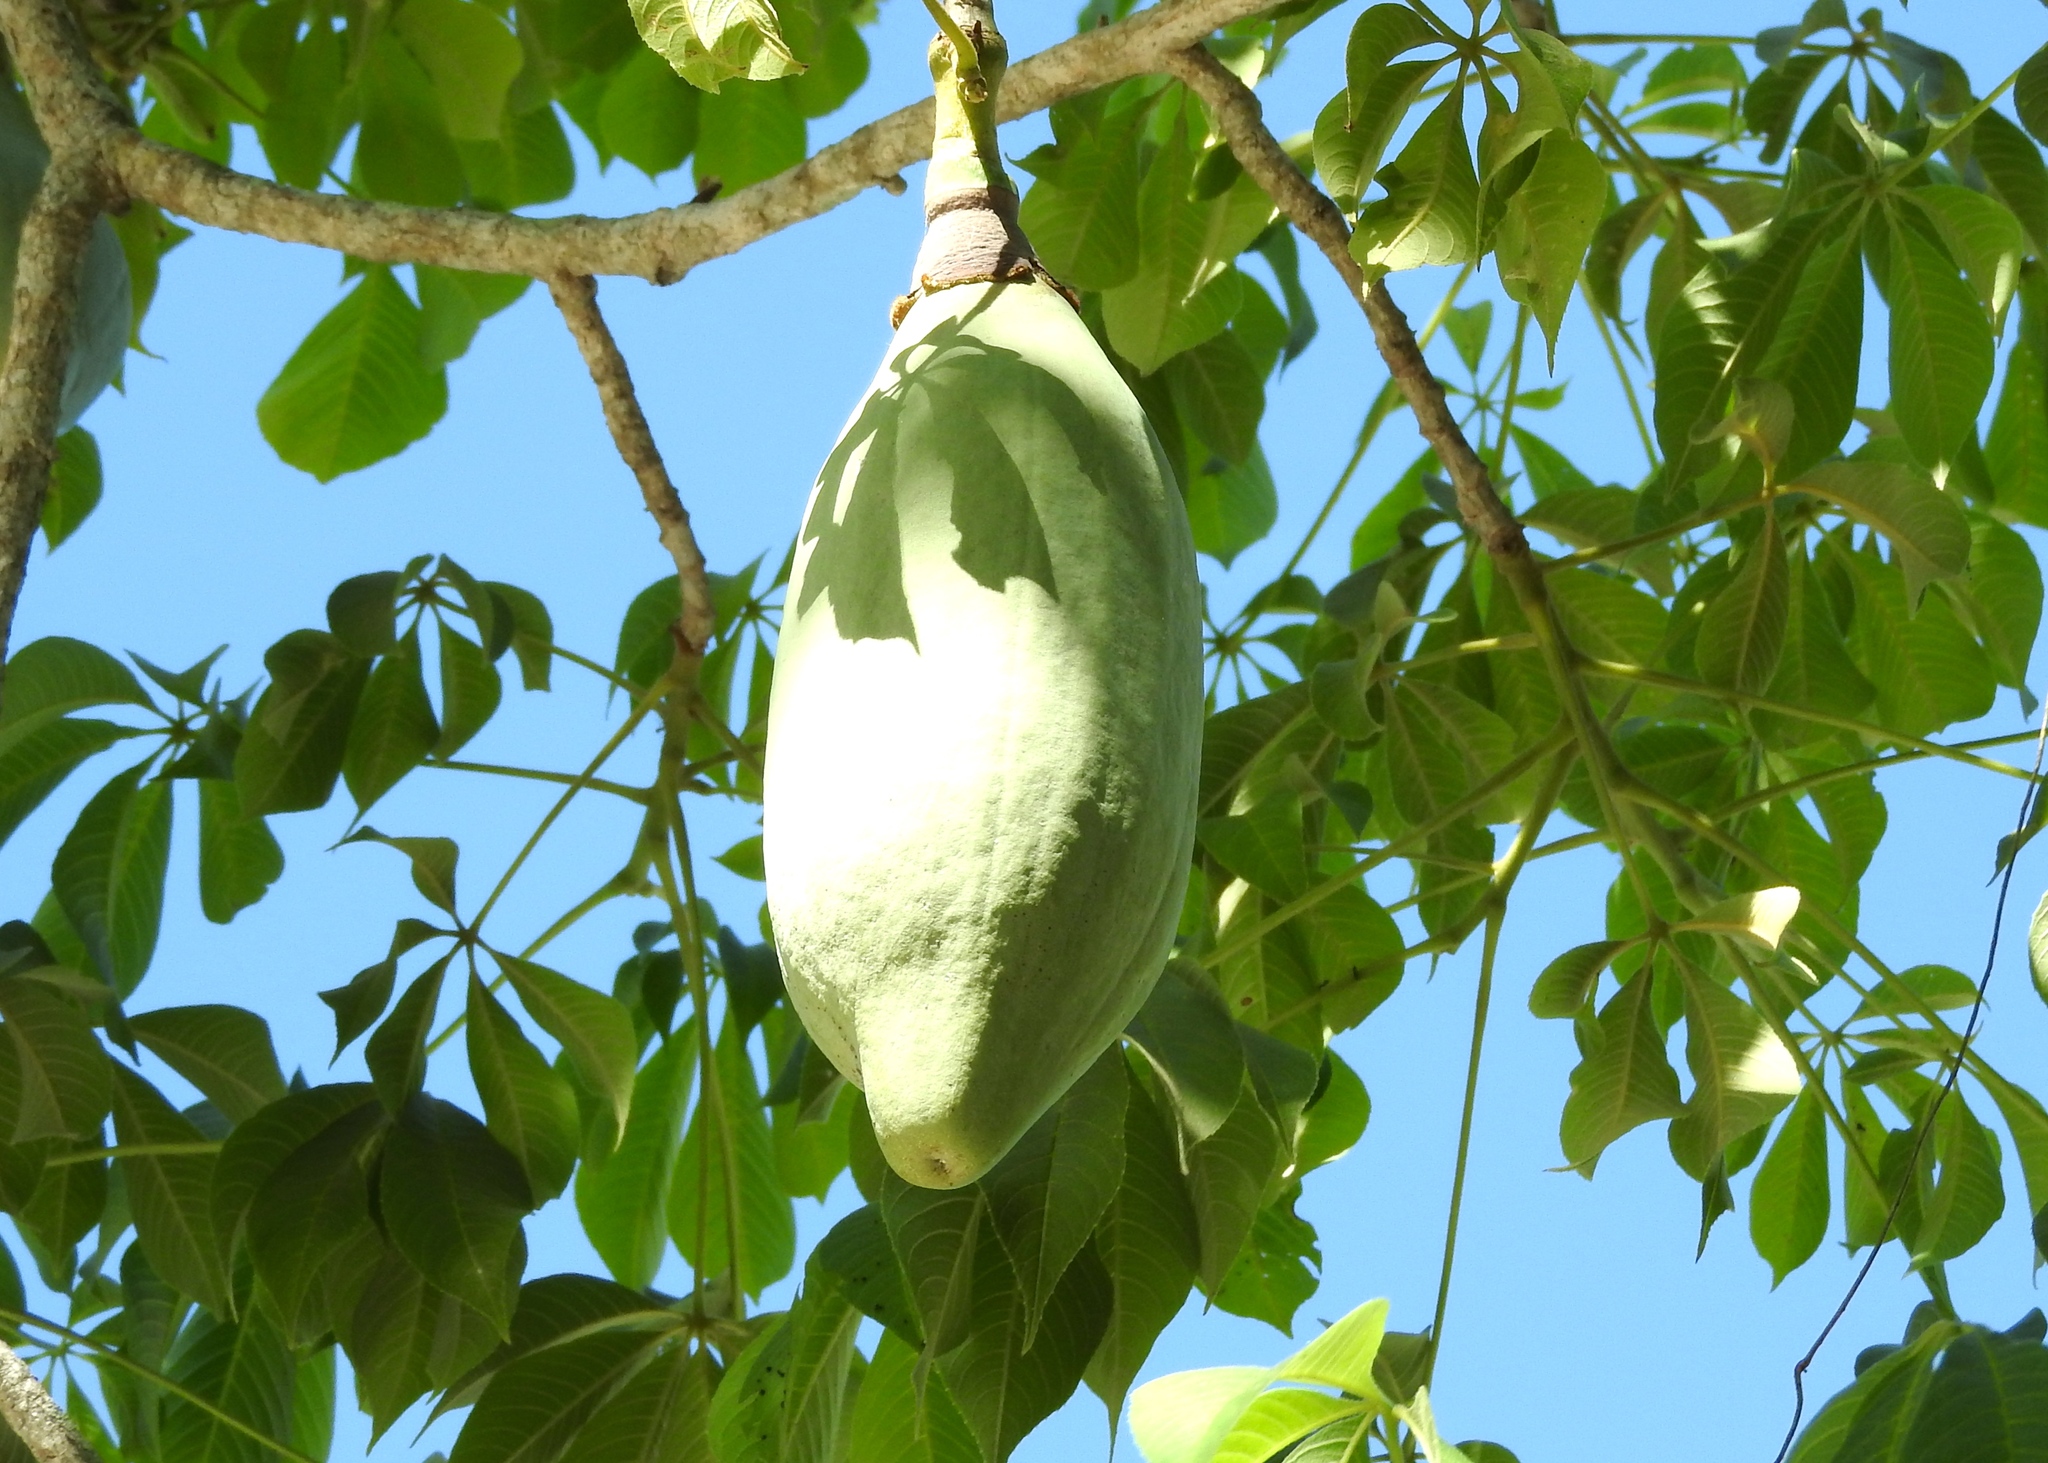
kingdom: Plantae
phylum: Tracheophyta
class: Magnoliopsida
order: Malvales
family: Malvaceae
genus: Ceiba
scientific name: Ceiba aesculifolia
